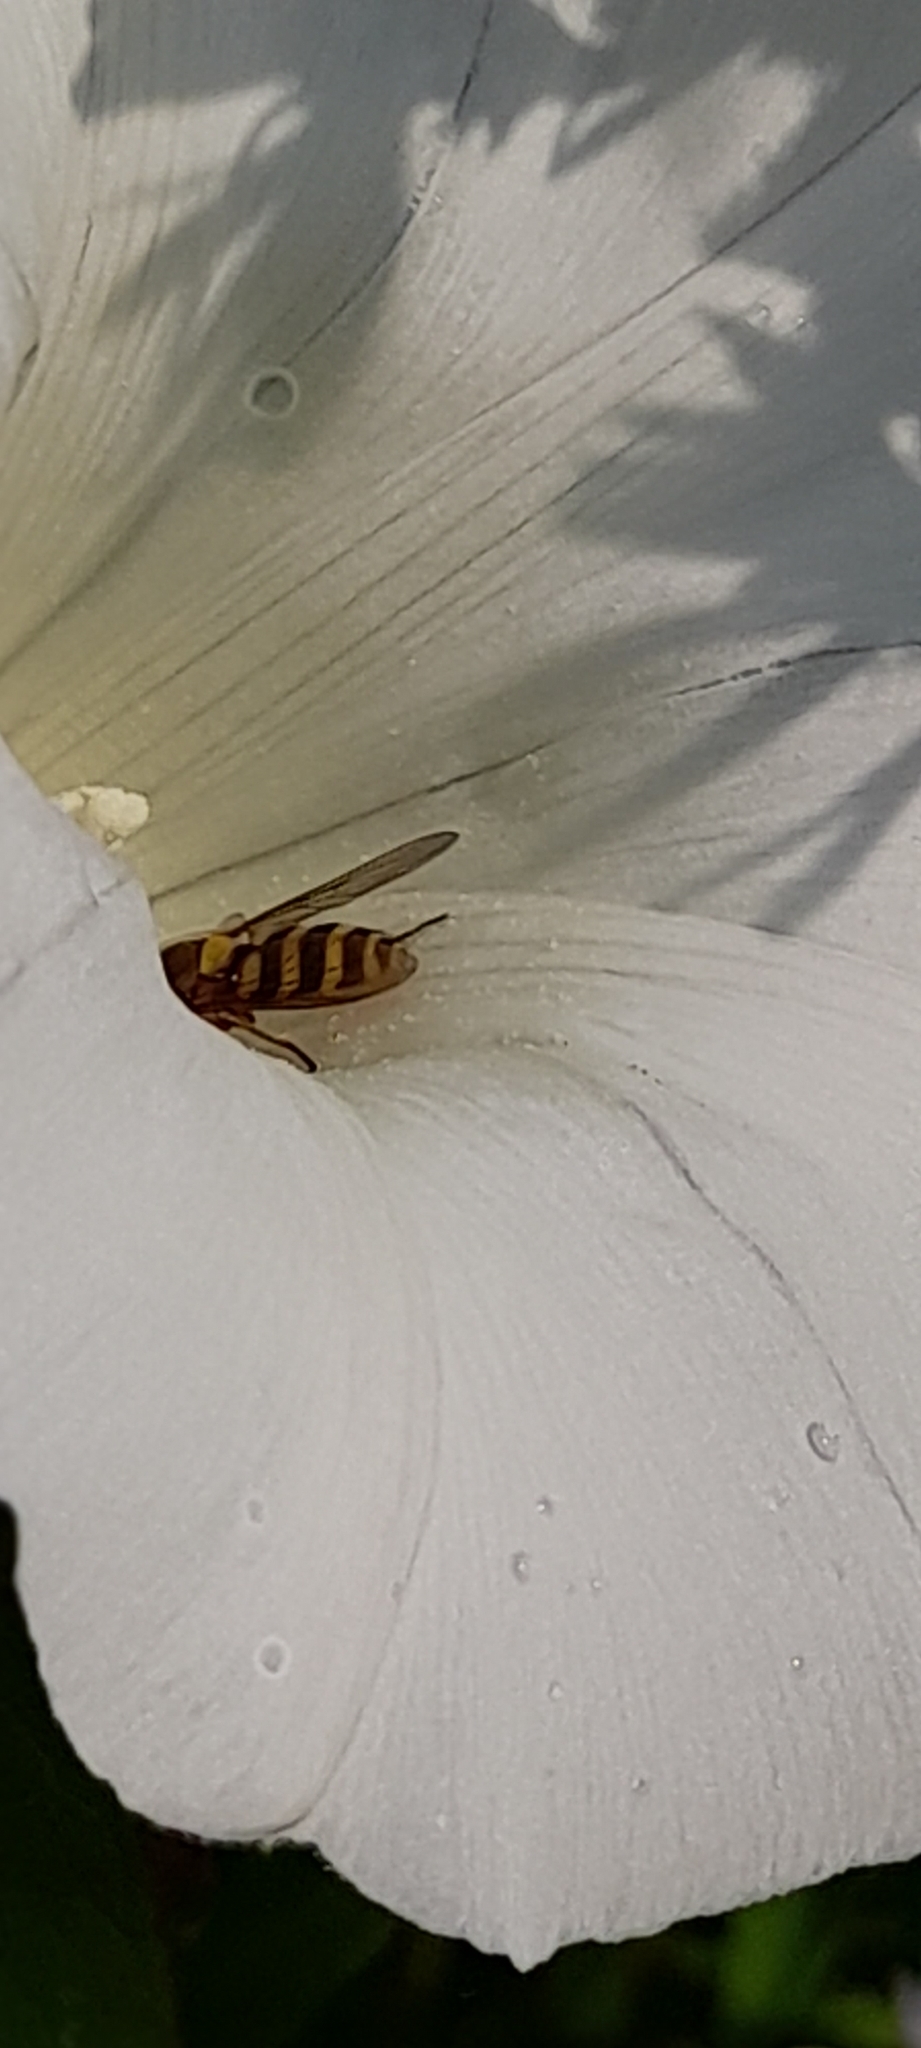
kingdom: Animalia
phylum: Arthropoda
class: Insecta
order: Diptera
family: Syrphidae
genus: Syrphus
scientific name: Syrphus
